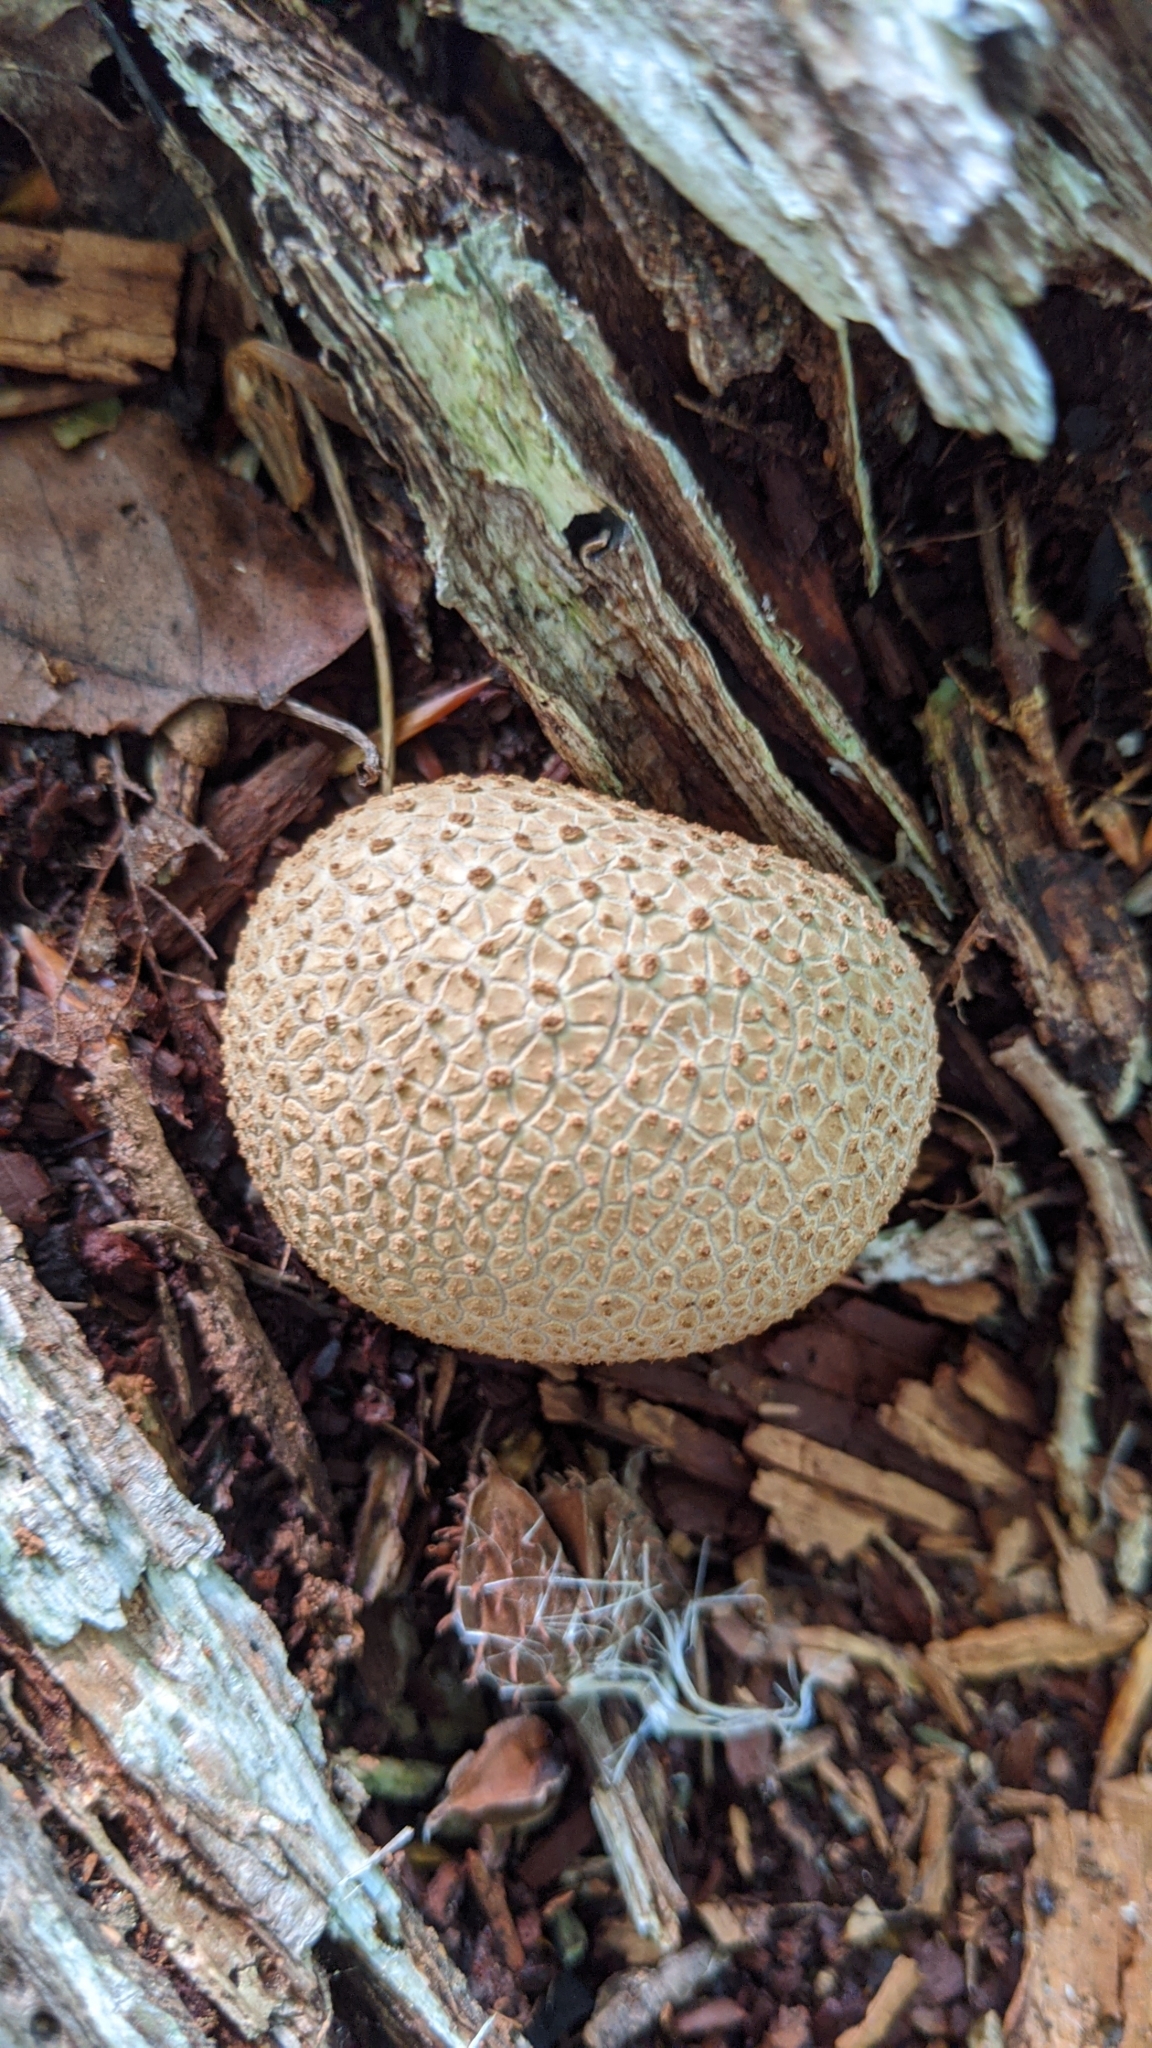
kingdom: Fungi
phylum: Basidiomycota
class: Agaricomycetes
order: Boletales
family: Sclerodermataceae
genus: Scleroderma
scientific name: Scleroderma citrinum
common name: Common earthball
